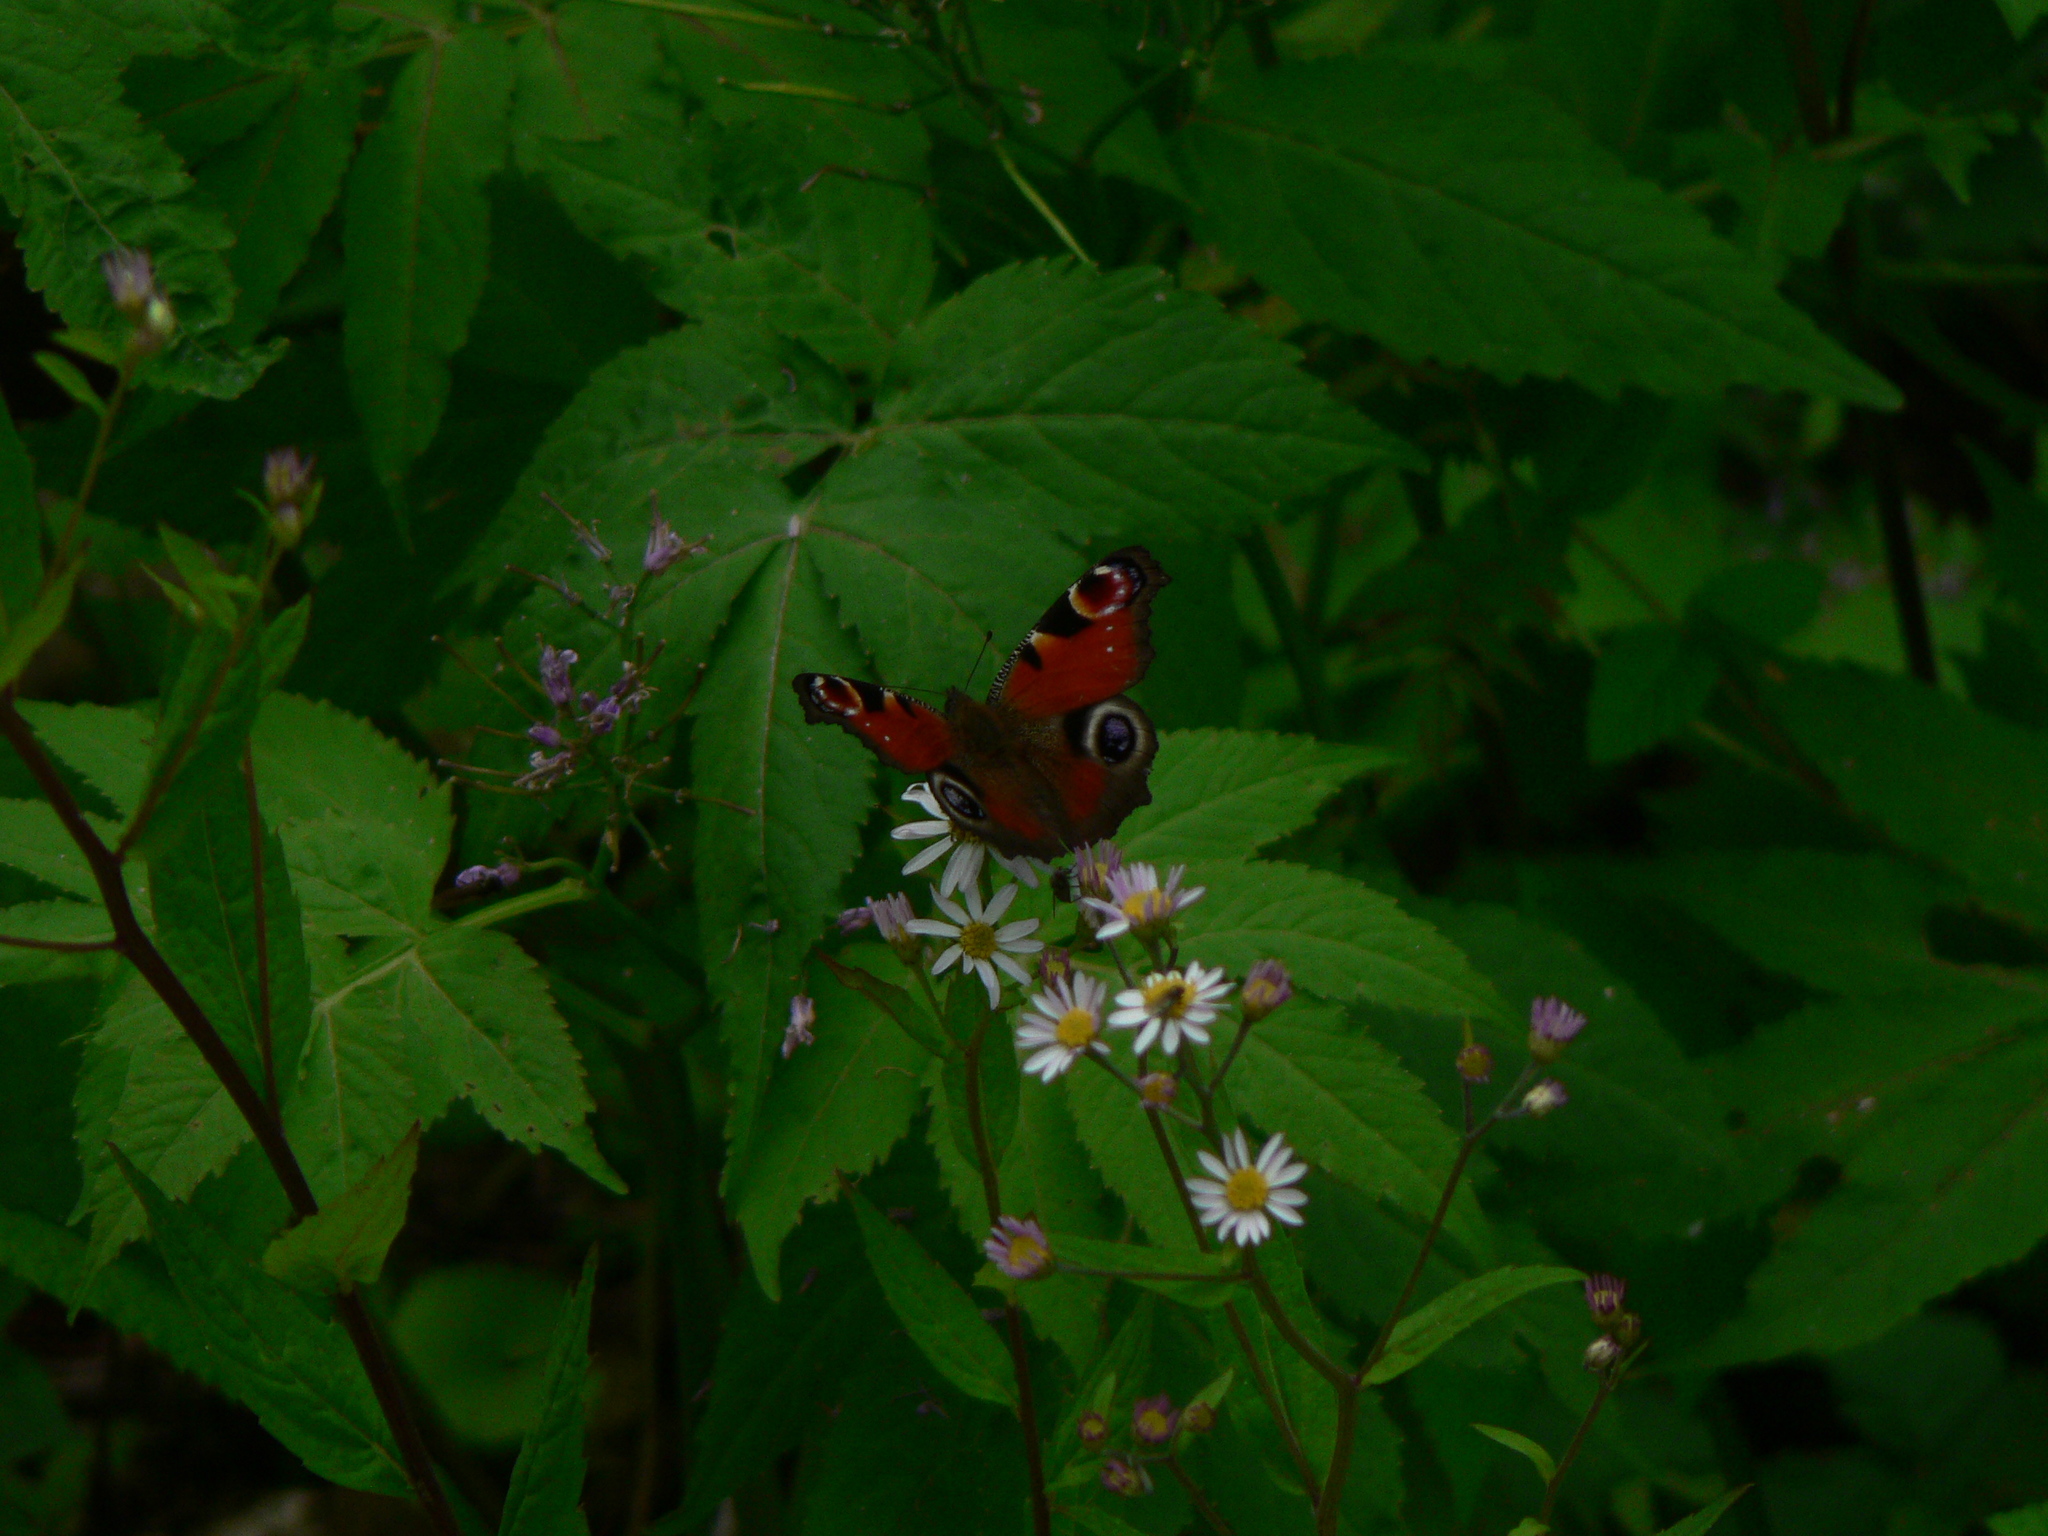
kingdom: Animalia
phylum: Arthropoda
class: Insecta
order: Lepidoptera
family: Nymphalidae
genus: Aglais
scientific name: Aglais io
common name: Peacock
